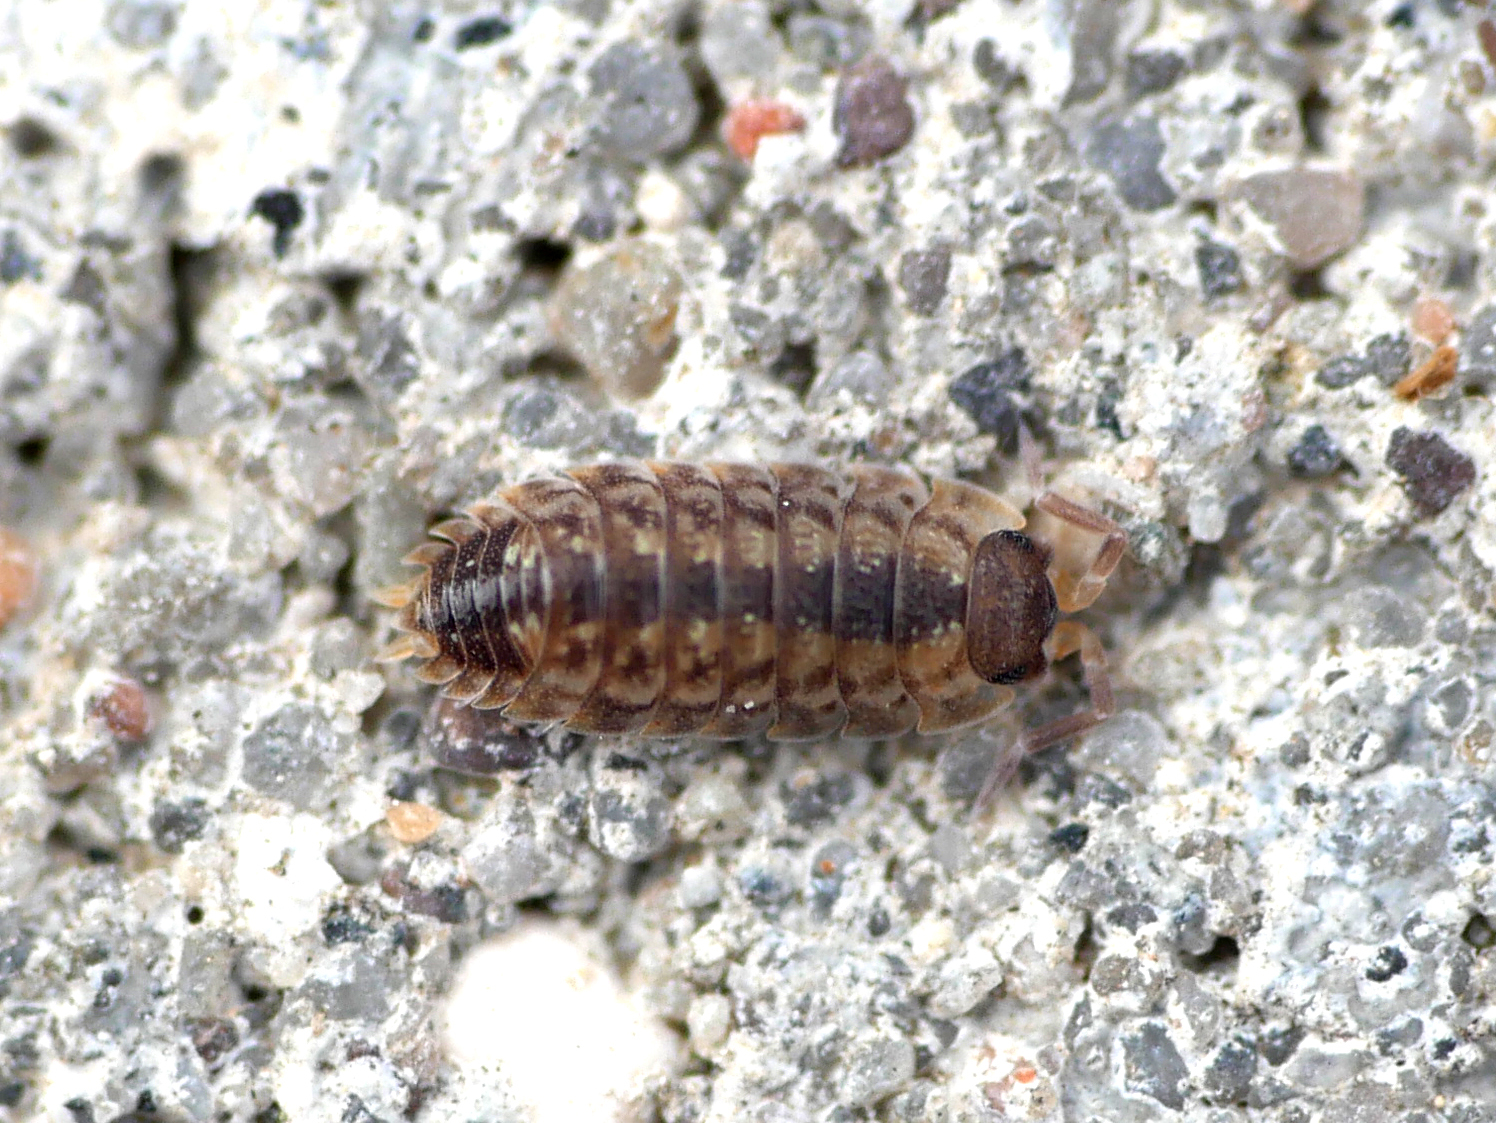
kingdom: Animalia
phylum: Arthropoda
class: Malacostraca
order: Isopoda
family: Porcellionidae
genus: Porcellio
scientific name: Porcellio spinicornis
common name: Painted woodlouse
